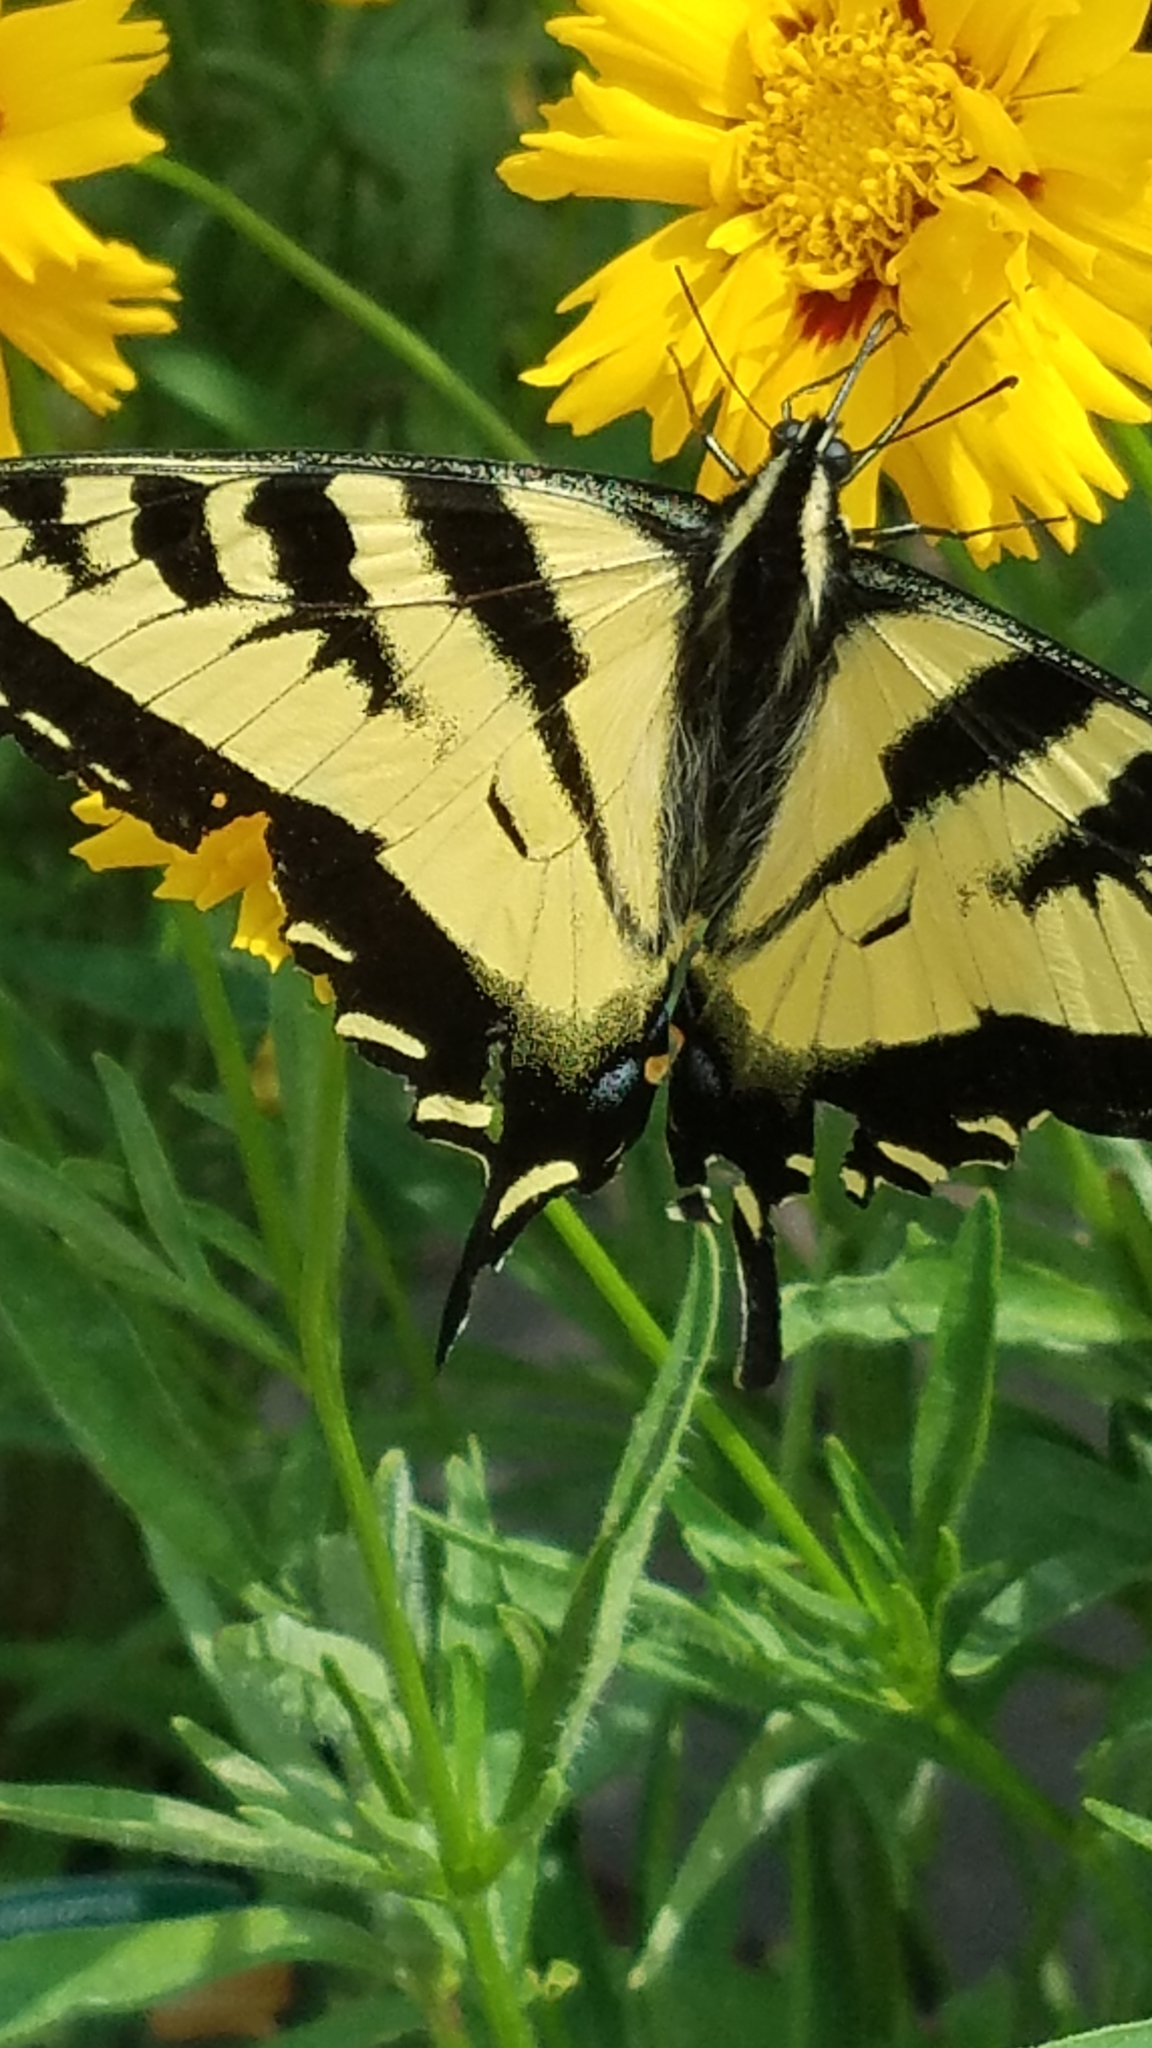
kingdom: Animalia
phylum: Arthropoda
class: Insecta
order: Lepidoptera
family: Papilionidae
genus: Papilio
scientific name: Papilio rutulus
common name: Western tiger swallowtail
